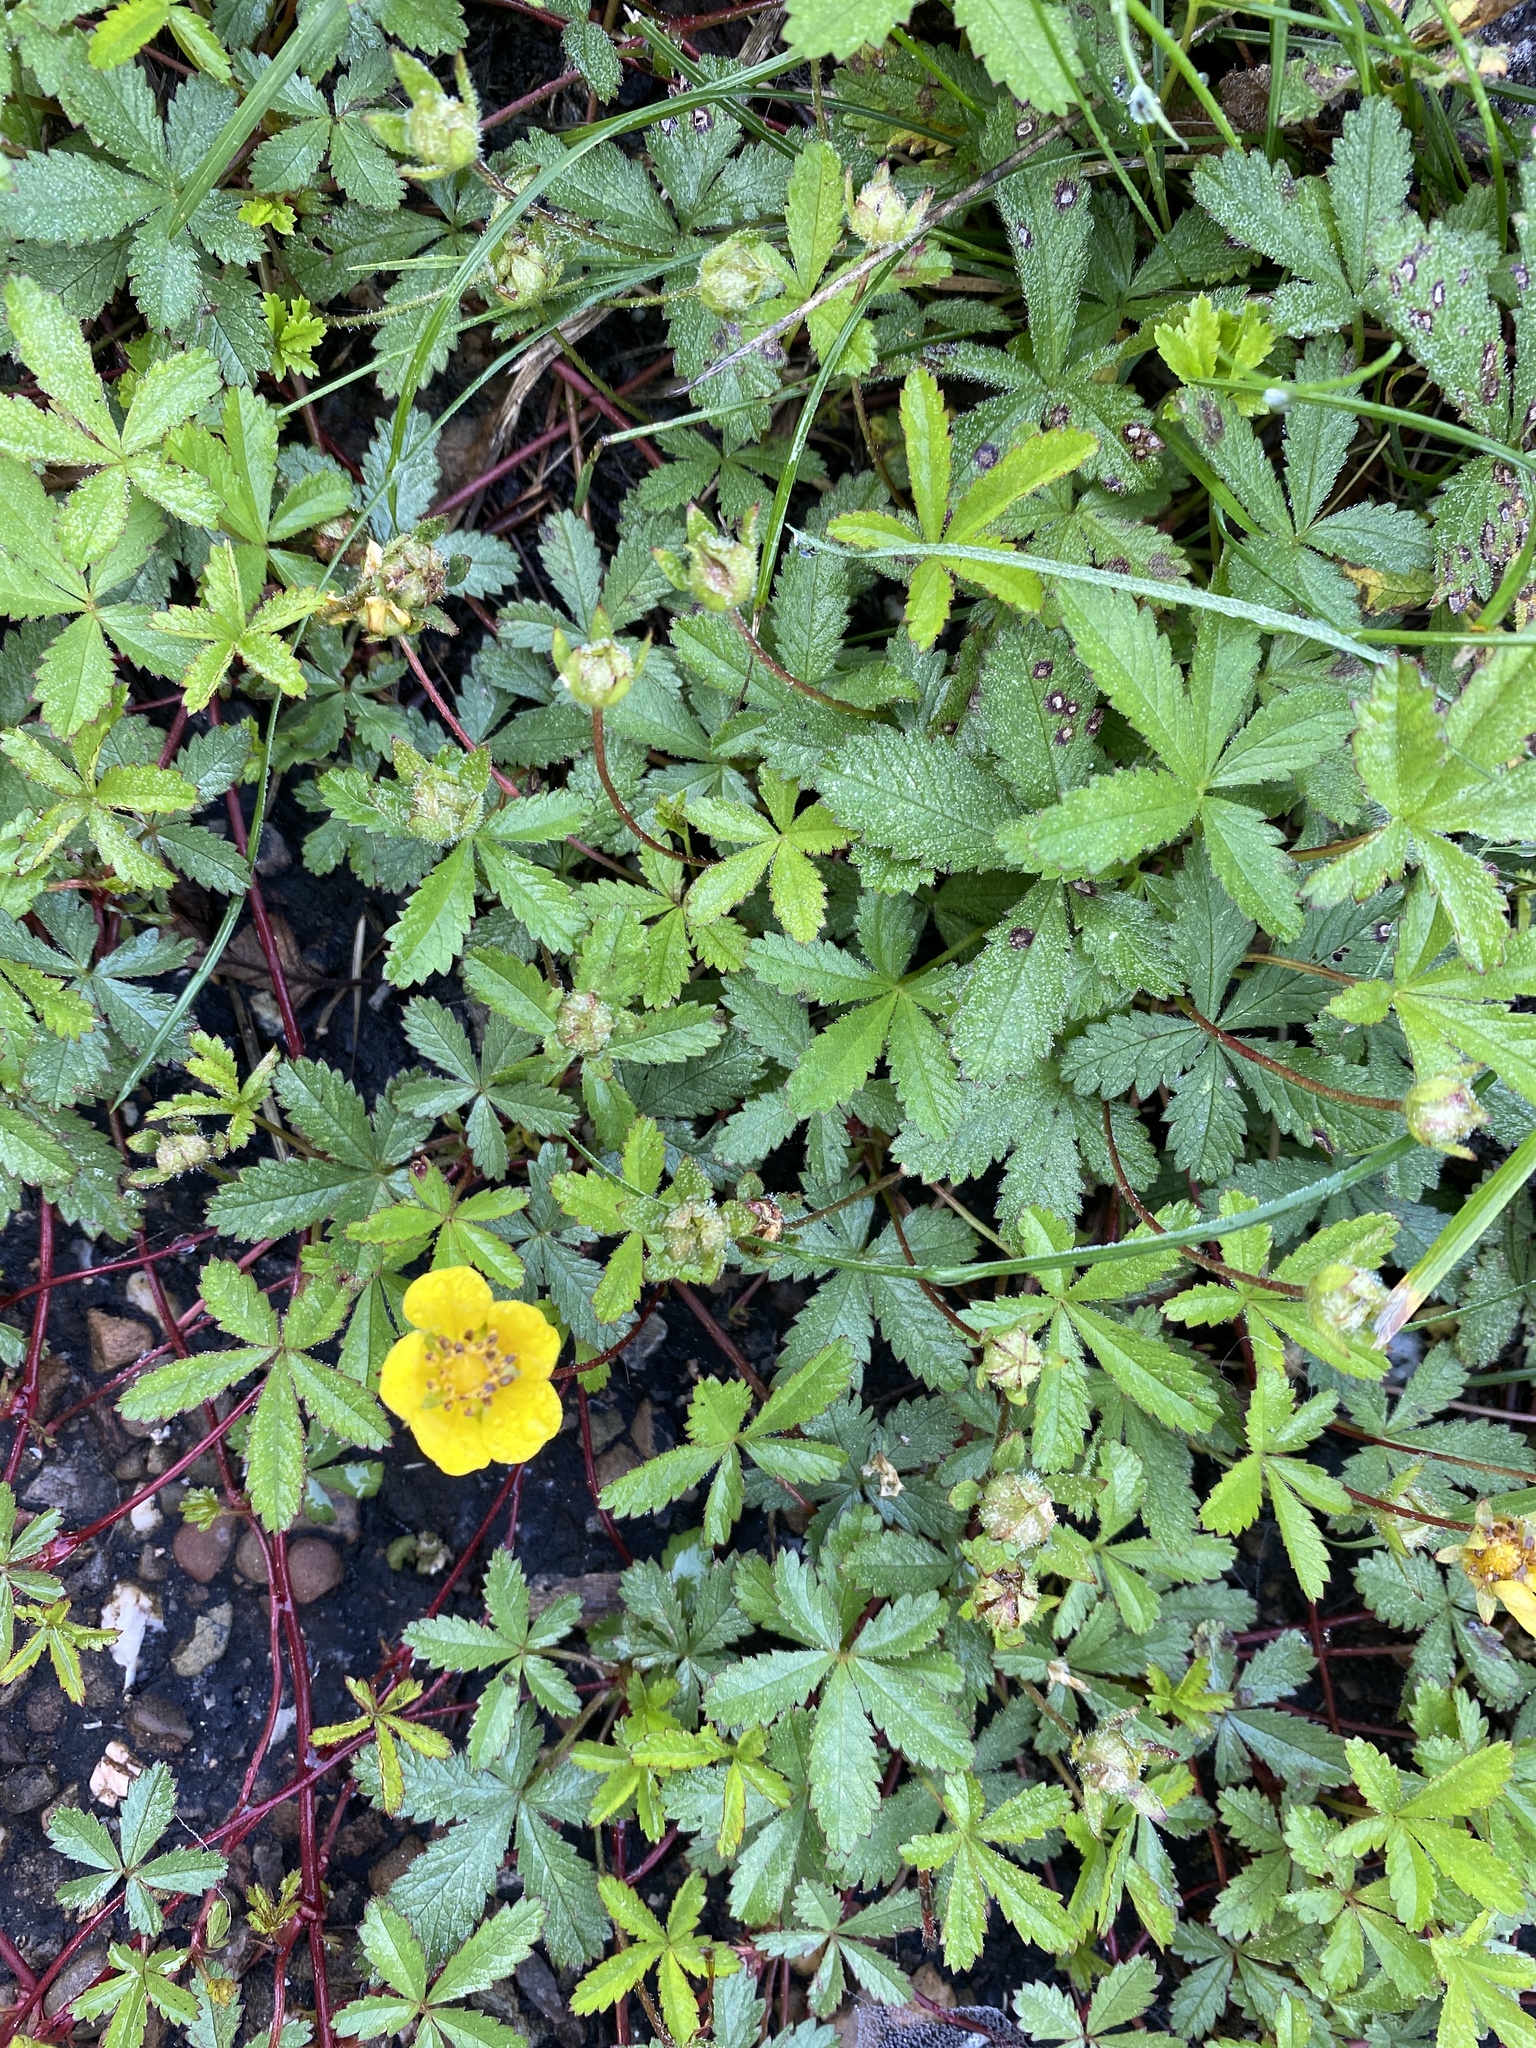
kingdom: Plantae
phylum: Tracheophyta
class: Magnoliopsida
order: Rosales
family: Rosaceae
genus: Potentilla
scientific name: Potentilla reptans
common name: Creeping cinquefoil
